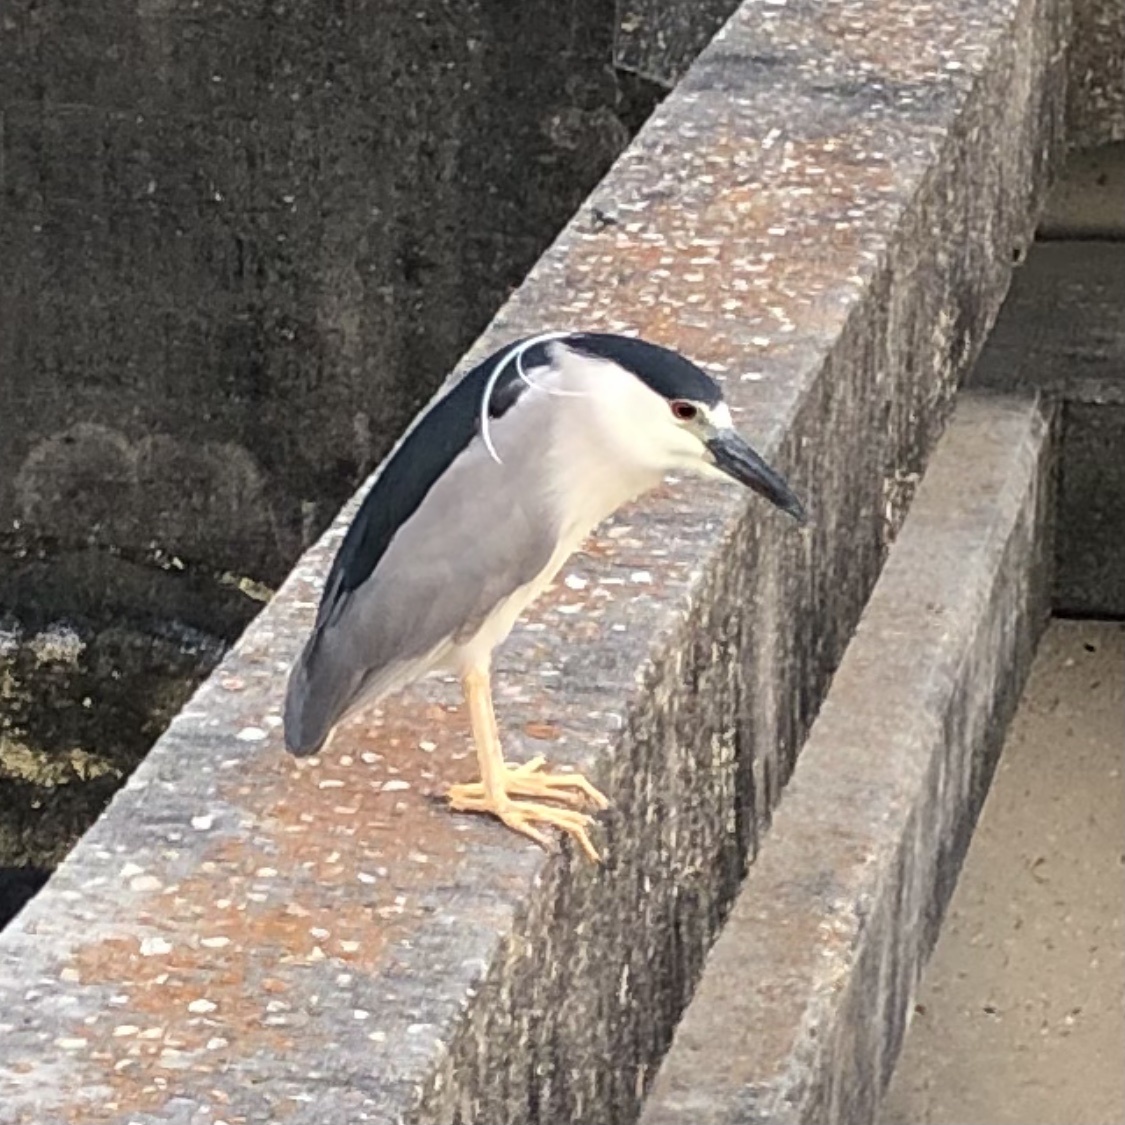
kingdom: Animalia
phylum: Chordata
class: Aves
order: Pelecaniformes
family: Ardeidae
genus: Nycticorax
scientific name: Nycticorax nycticorax
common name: Black-crowned night heron
